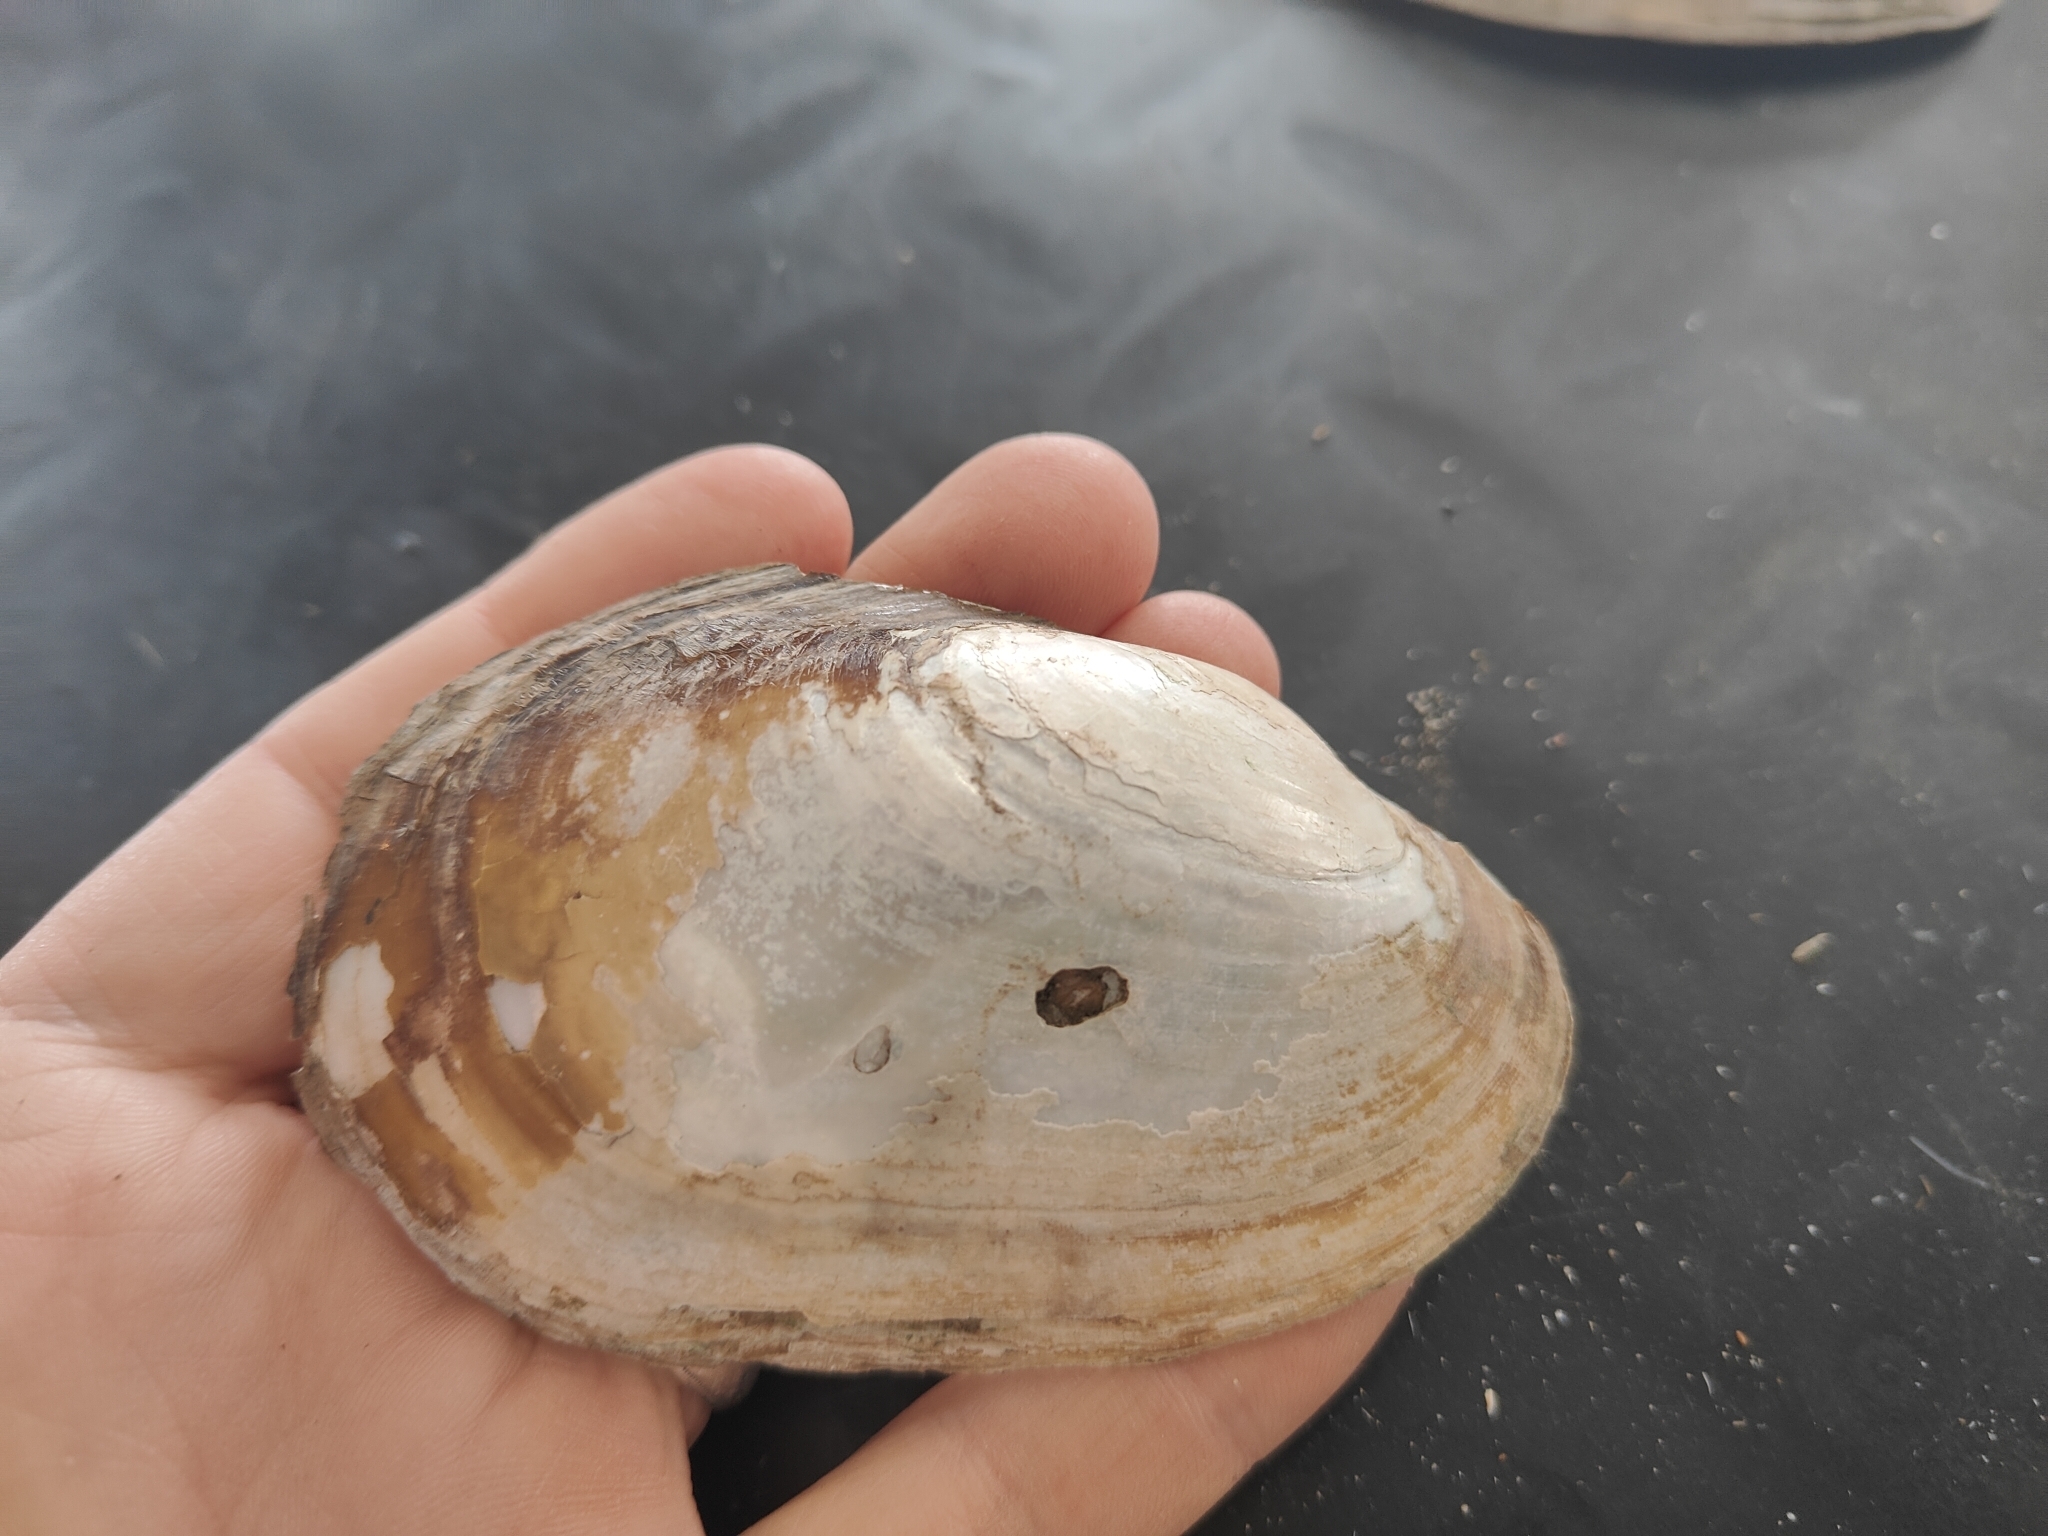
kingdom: Animalia
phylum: Mollusca
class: Bivalvia
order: Unionida
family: Unionidae
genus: Potamilus
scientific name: Potamilus fragilis
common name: Fragile papershell
